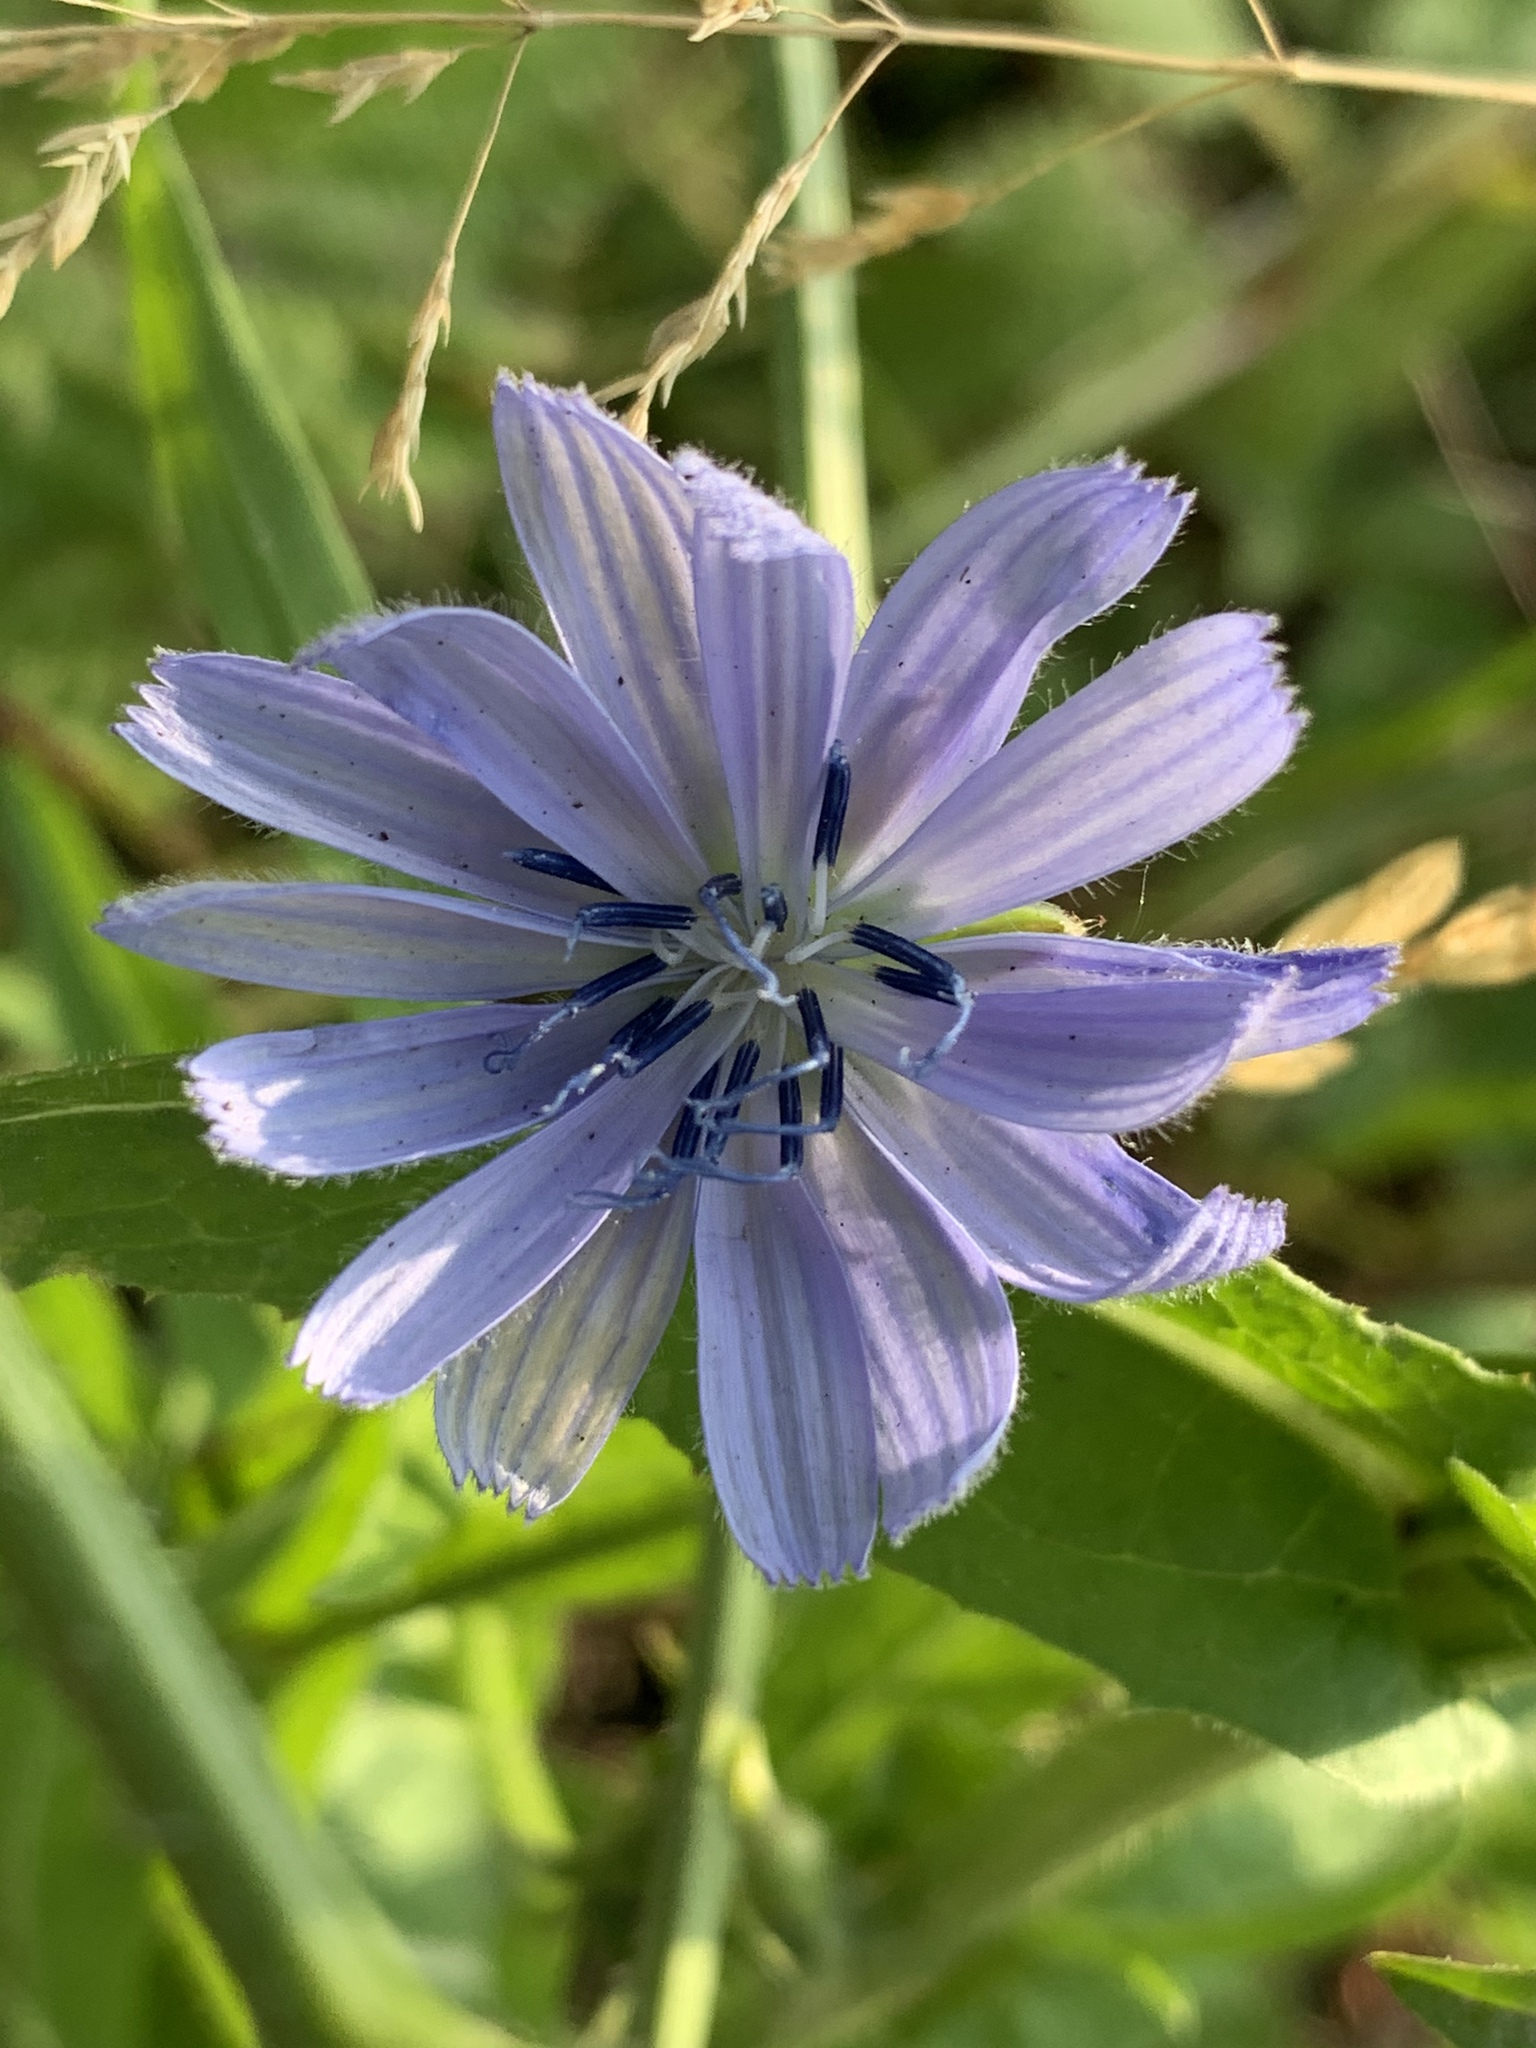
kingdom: Plantae
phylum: Tracheophyta
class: Magnoliopsida
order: Asterales
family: Asteraceae
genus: Cichorium
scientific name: Cichorium intybus
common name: Chicory
